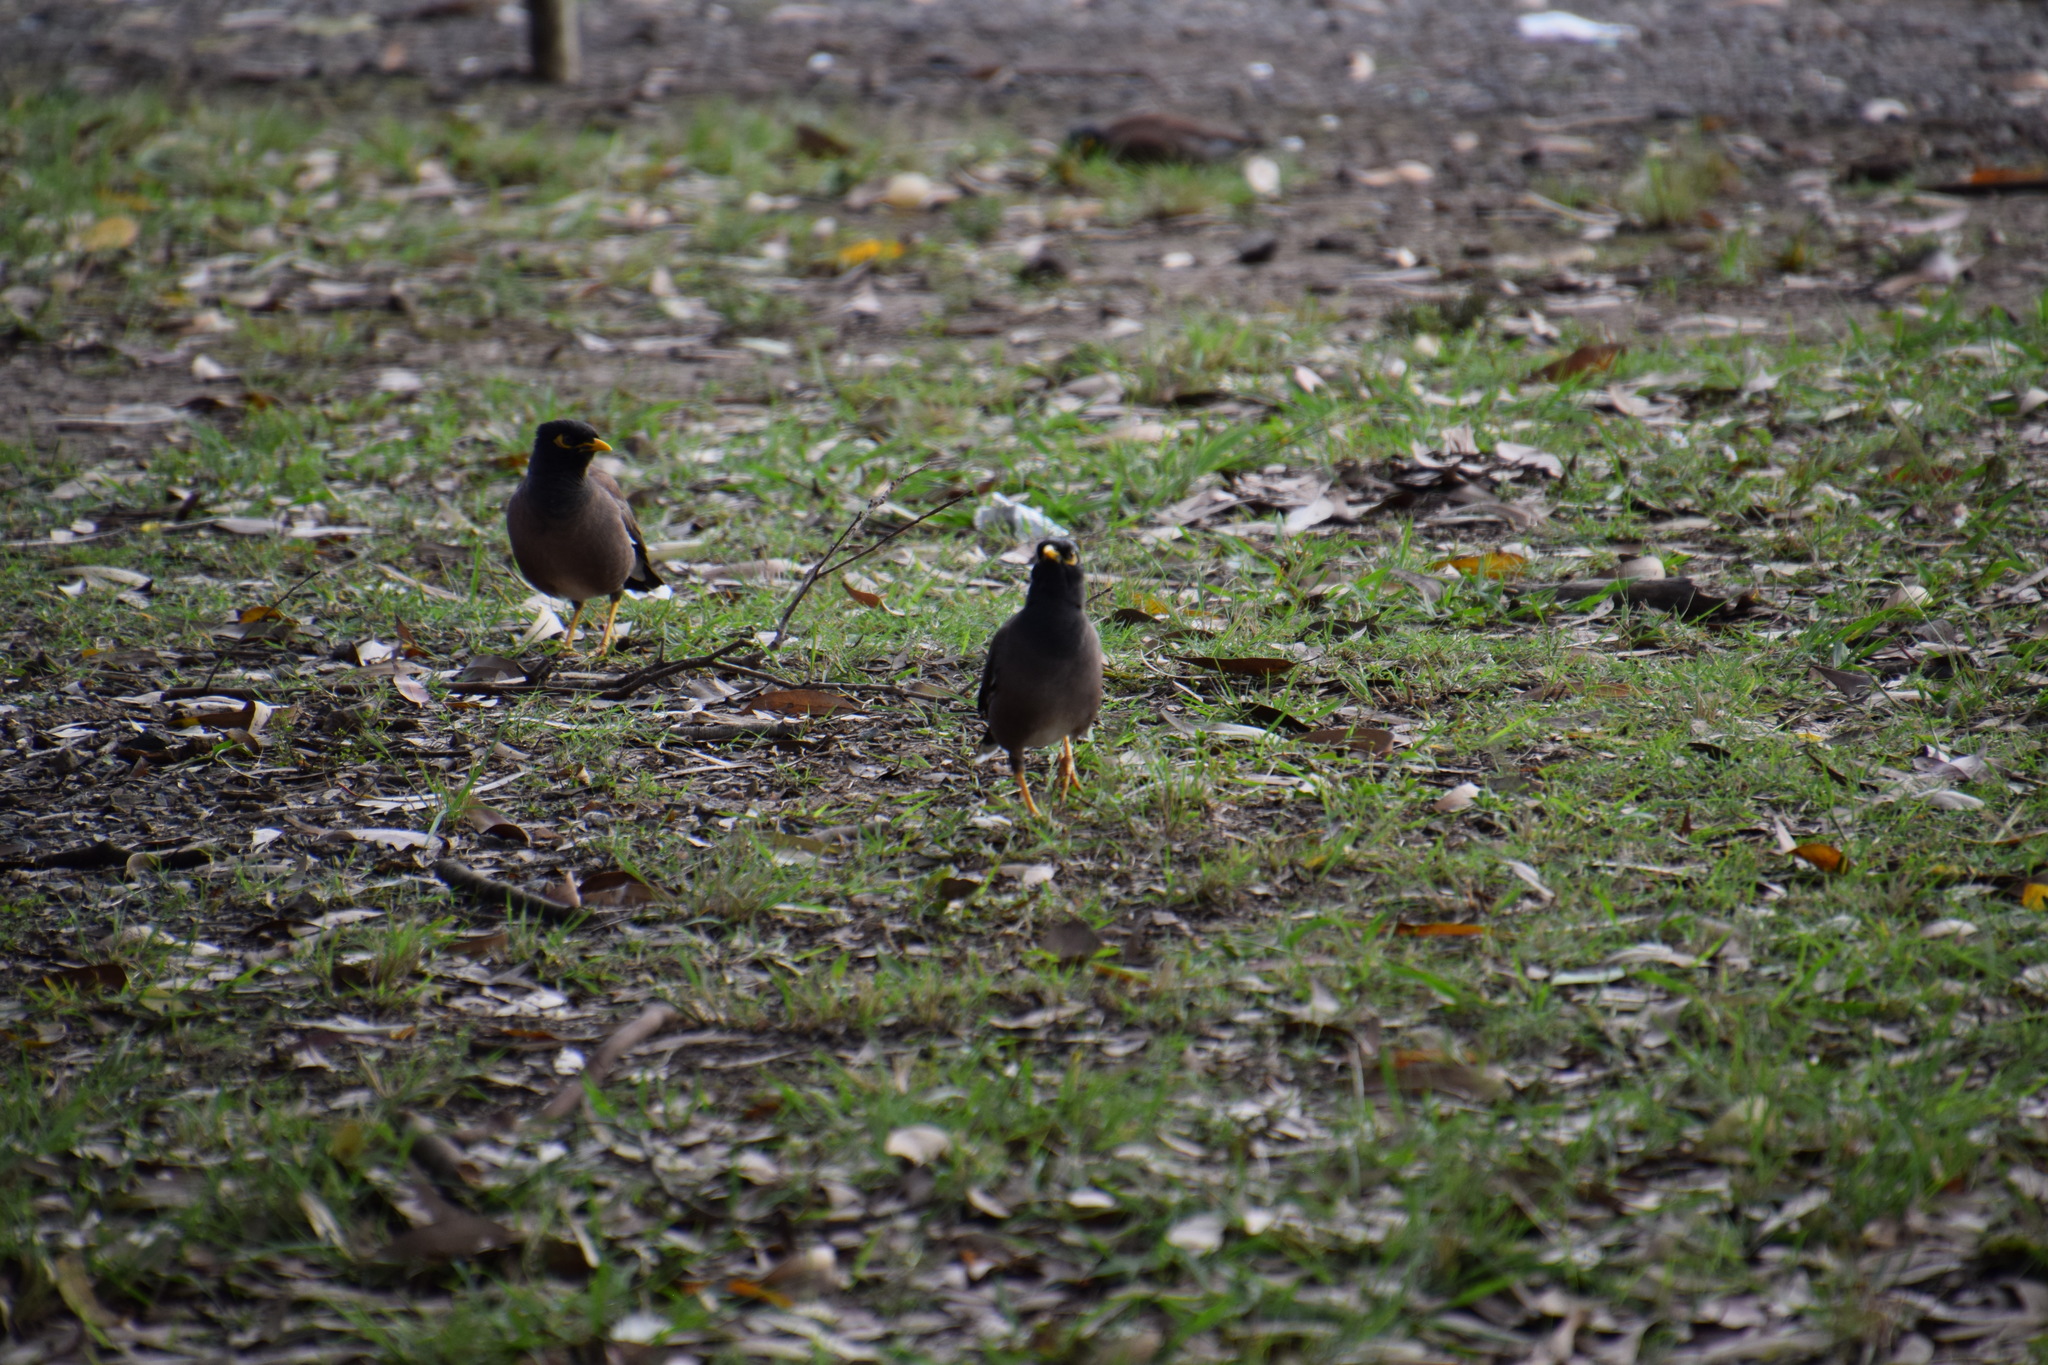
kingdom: Animalia
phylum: Chordata
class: Aves
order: Passeriformes
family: Sturnidae
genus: Acridotheres
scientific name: Acridotheres tristis
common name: Common myna
